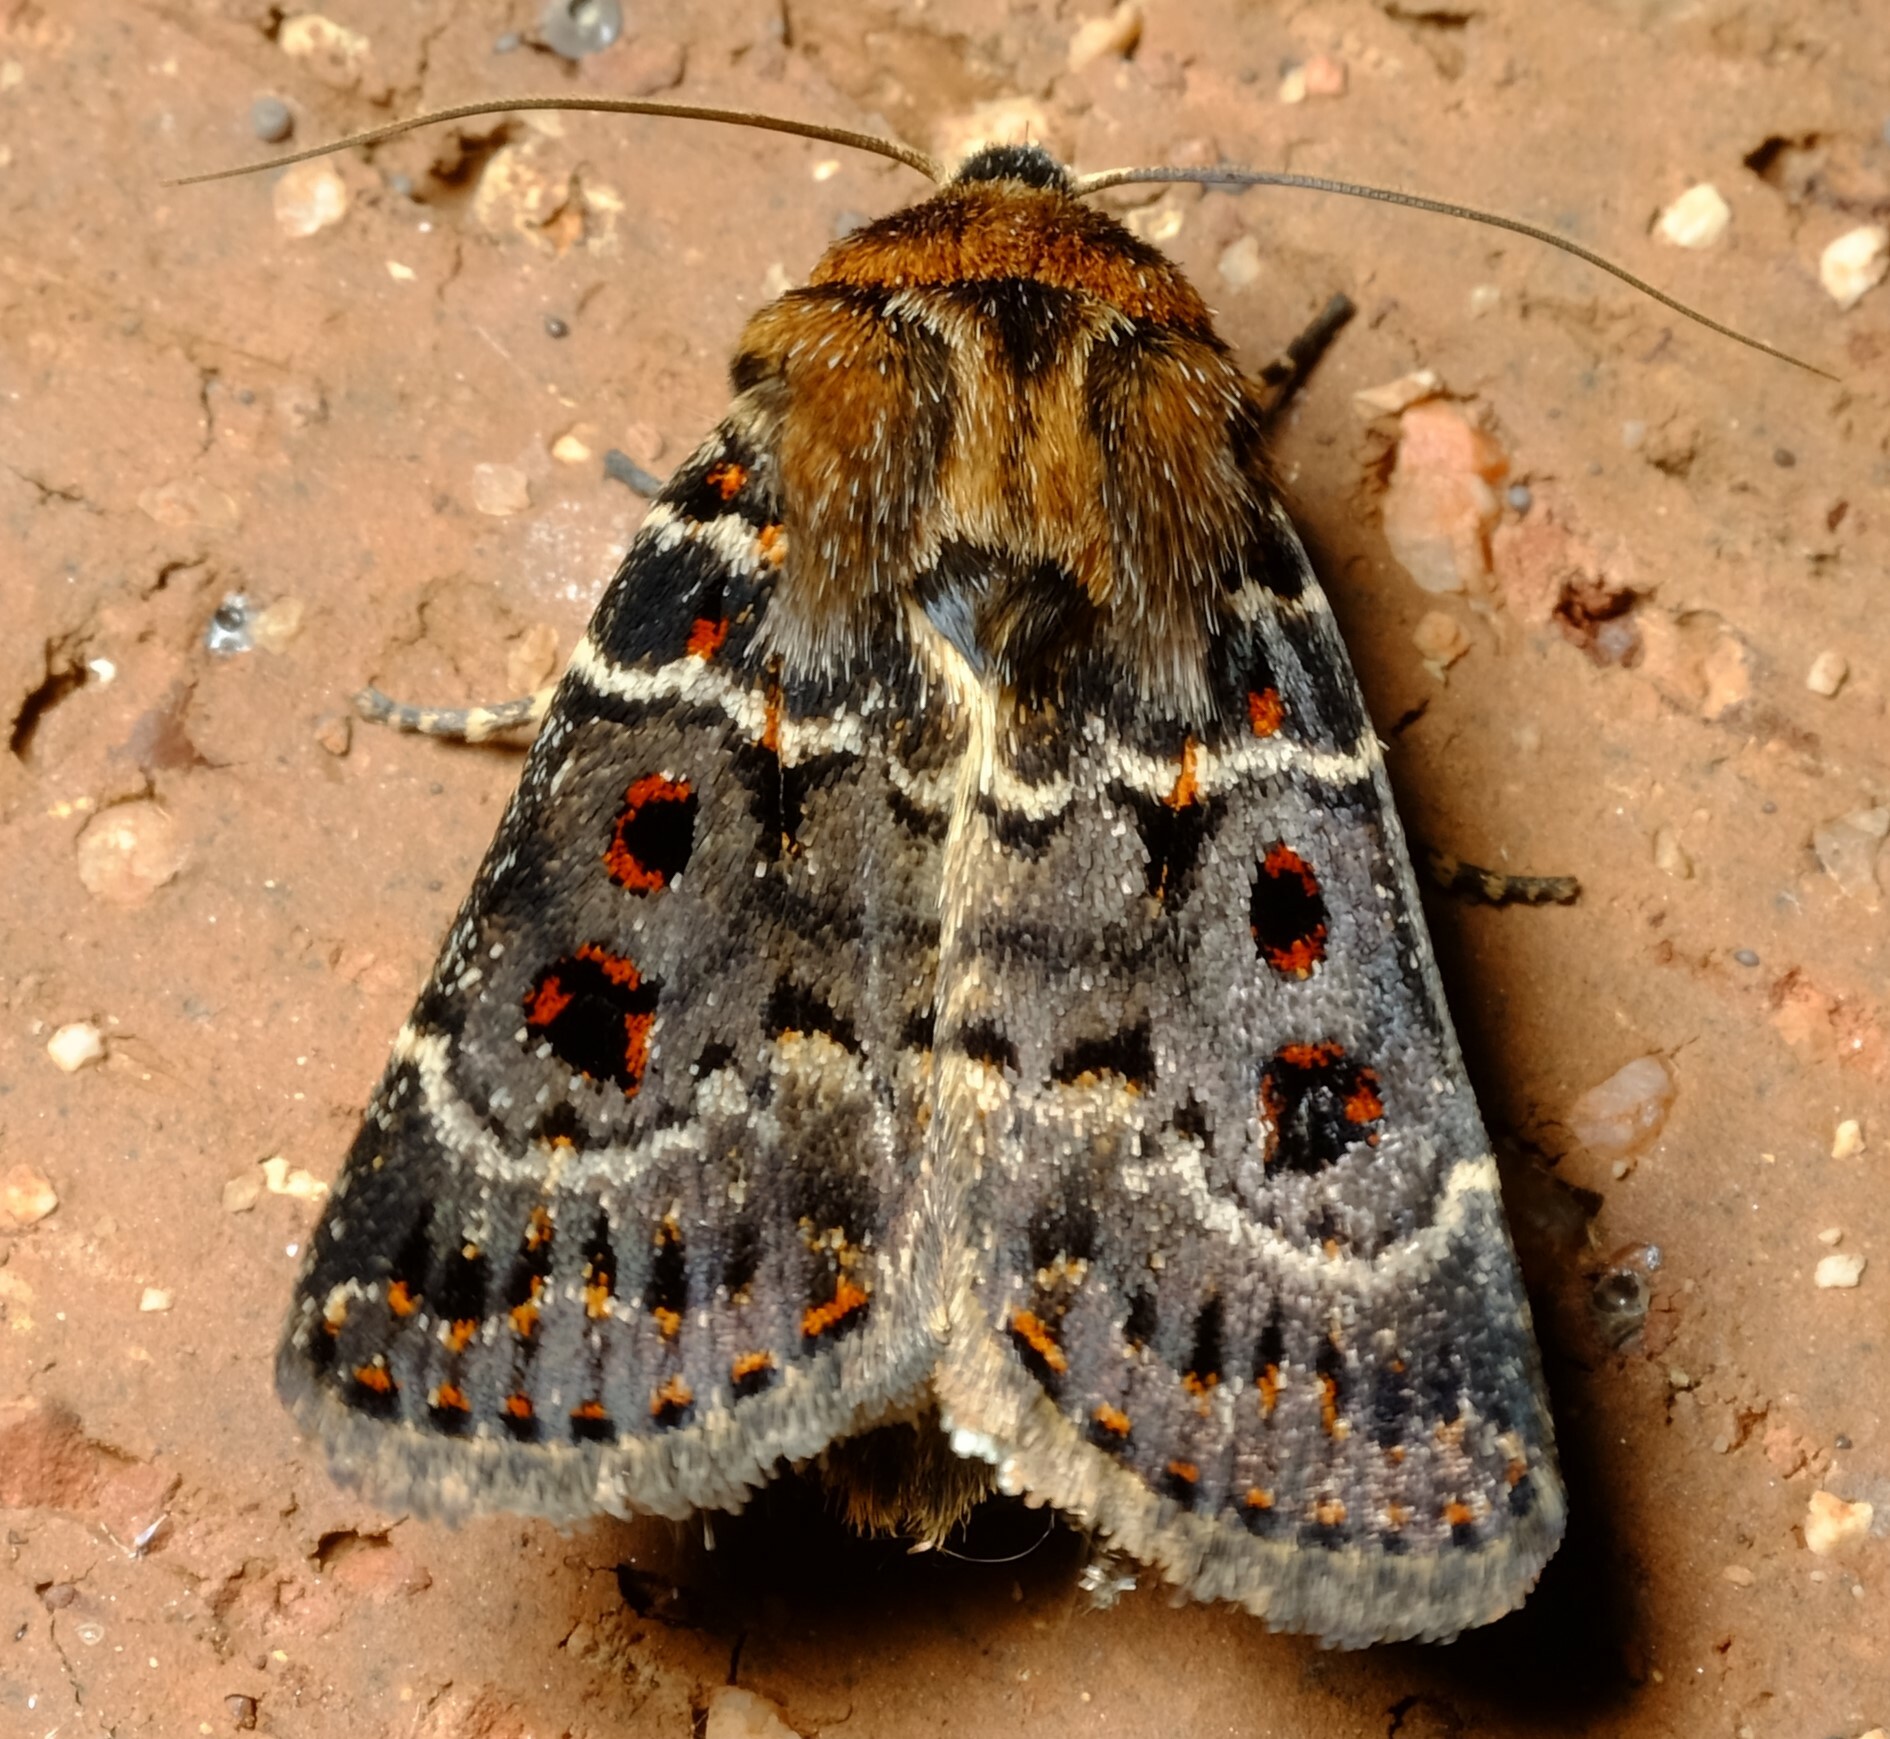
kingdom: Animalia
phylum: Arthropoda
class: Insecta
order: Lepidoptera
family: Noctuidae
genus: Proteuxoa
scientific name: Proteuxoa sanguinipuncta
